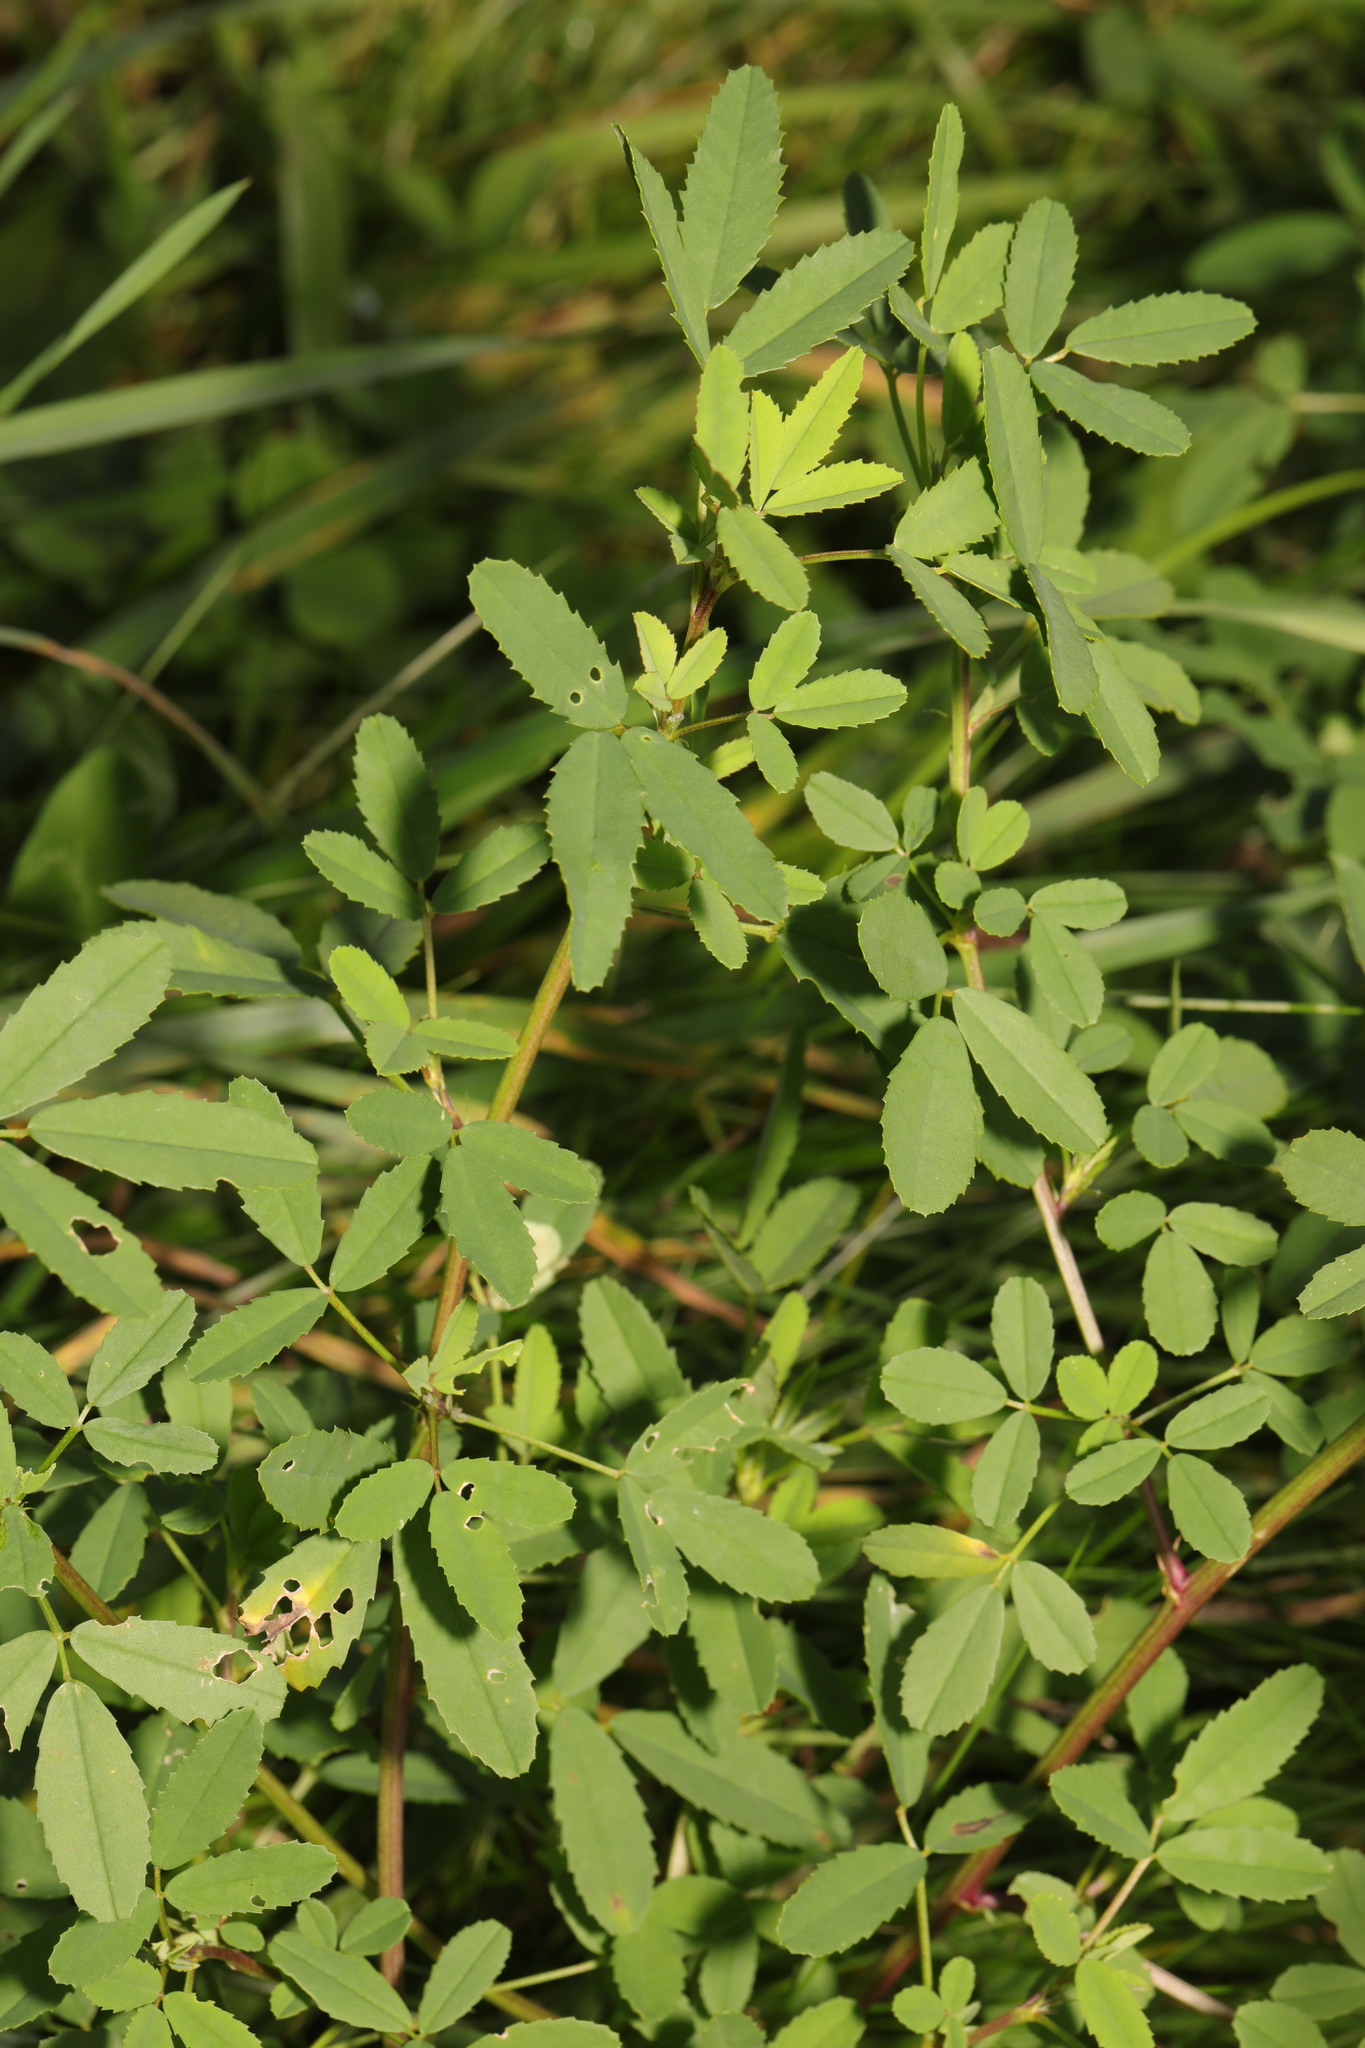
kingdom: Plantae
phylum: Tracheophyta
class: Magnoliopsida
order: Rosales
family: Rosaceae
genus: Comarum
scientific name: Comarum palustre
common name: Marsh cinquefoil
